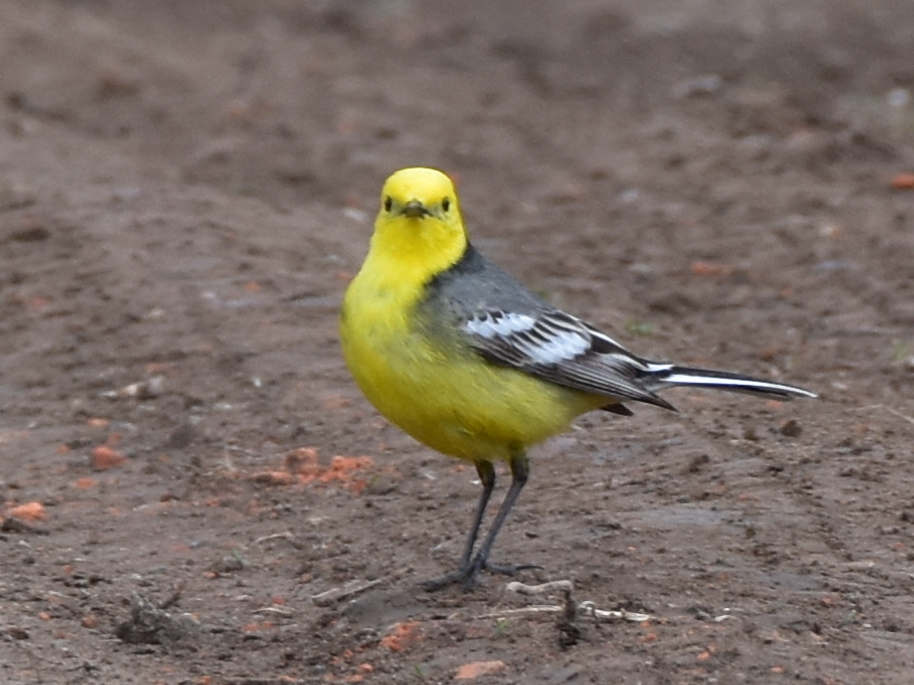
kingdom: Animalia
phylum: Chordata
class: Aves
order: Passeriformes
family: Motacillidae
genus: Motacilla
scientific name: Motacilla citreola
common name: Citrine wagtail
